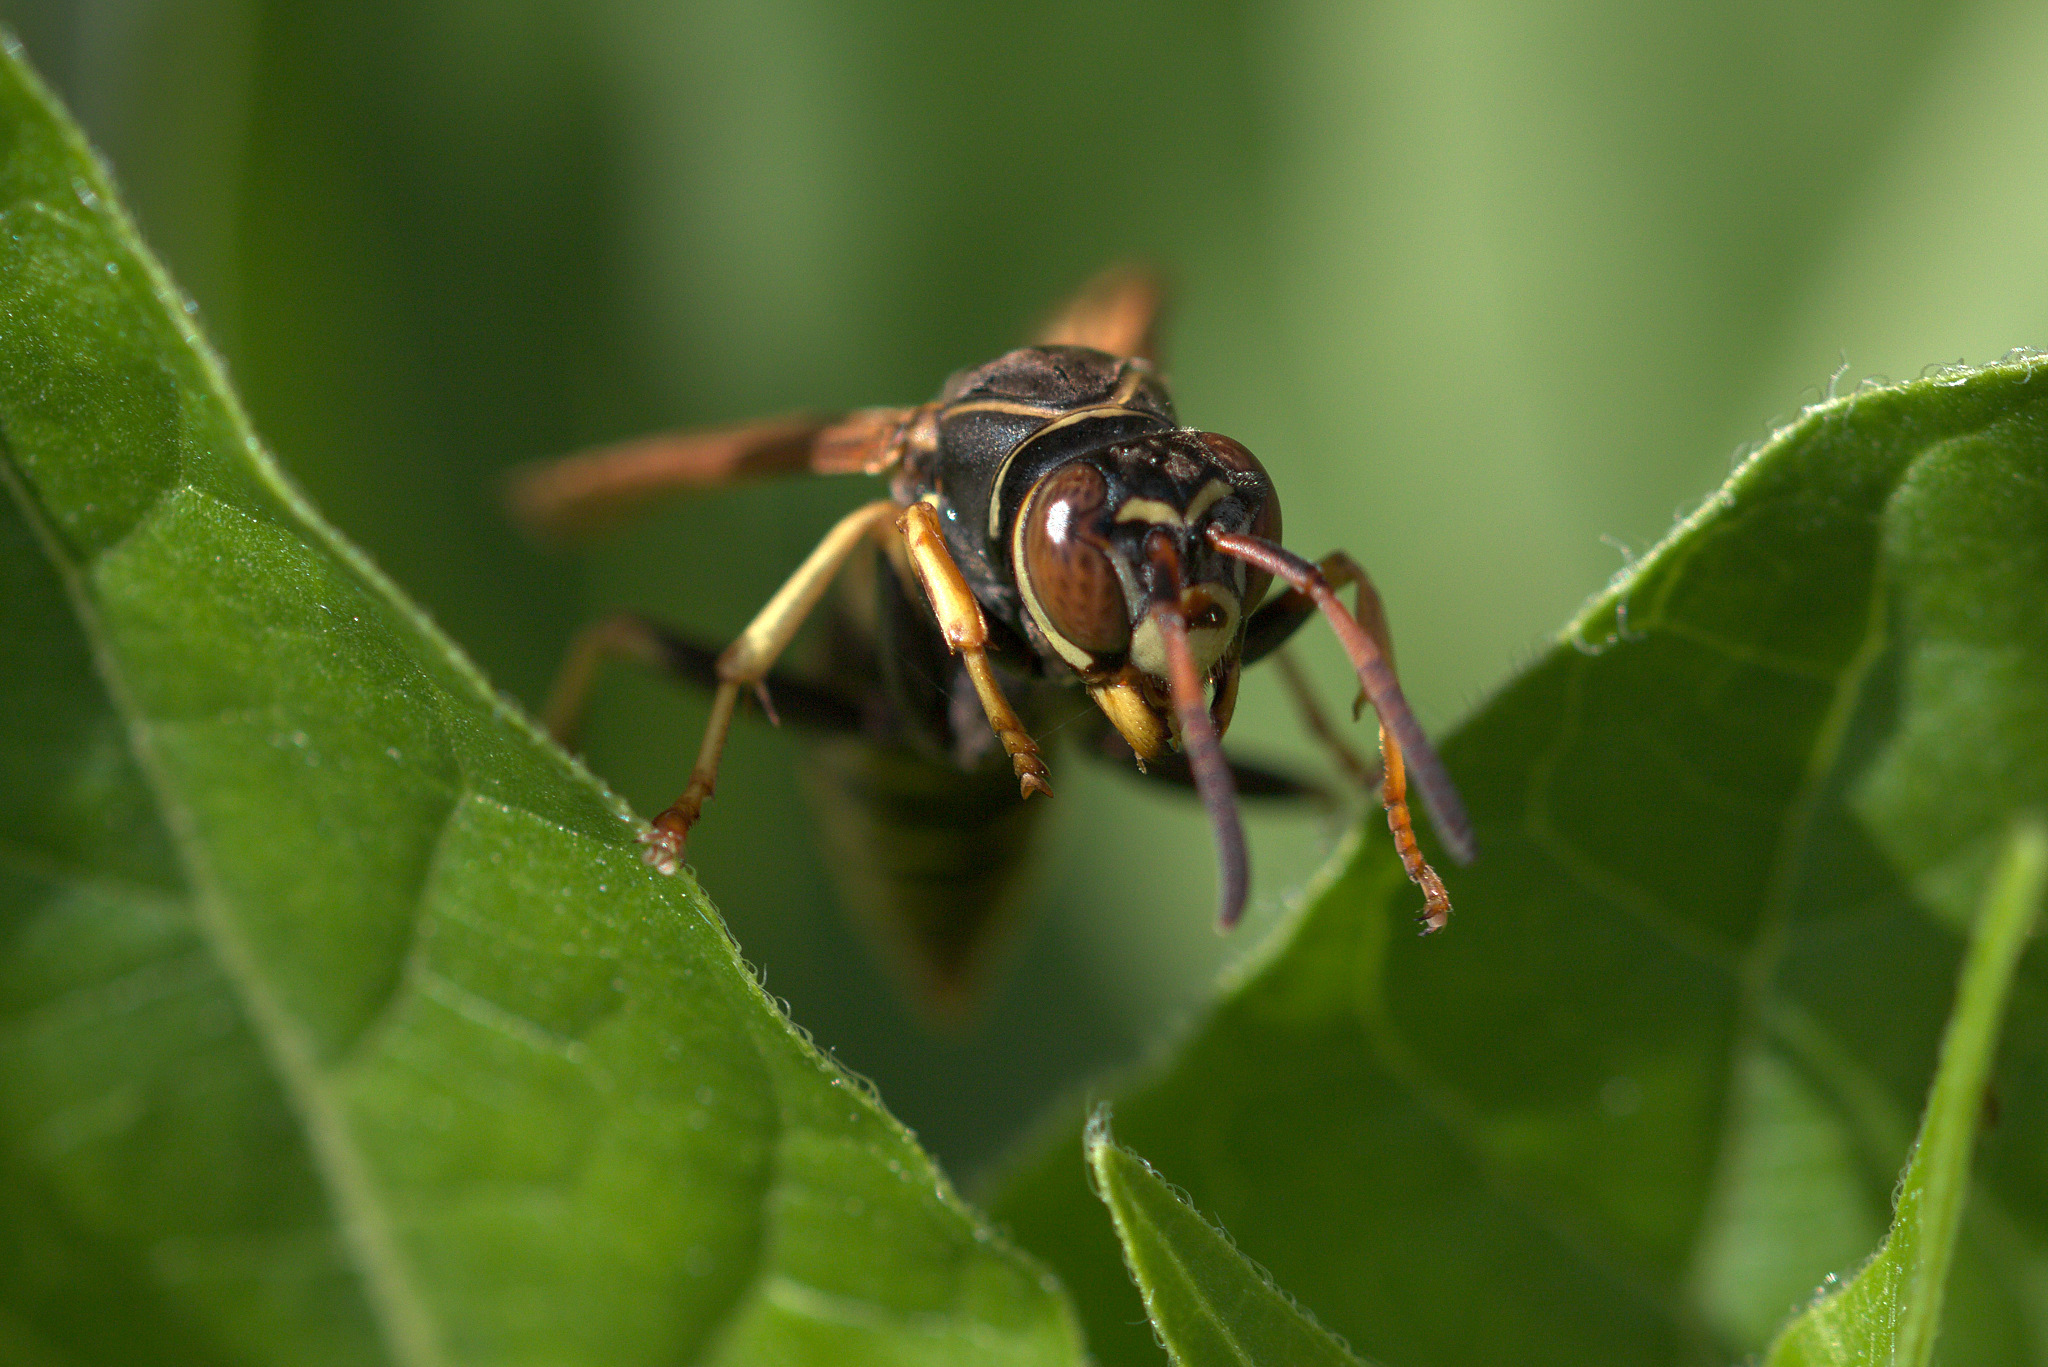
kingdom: Animalia
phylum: Arthropoda
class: Insecta
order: Hymenoptera
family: Eumenidae
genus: Polistes
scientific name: Polistes aurifer
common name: Paper wasp
